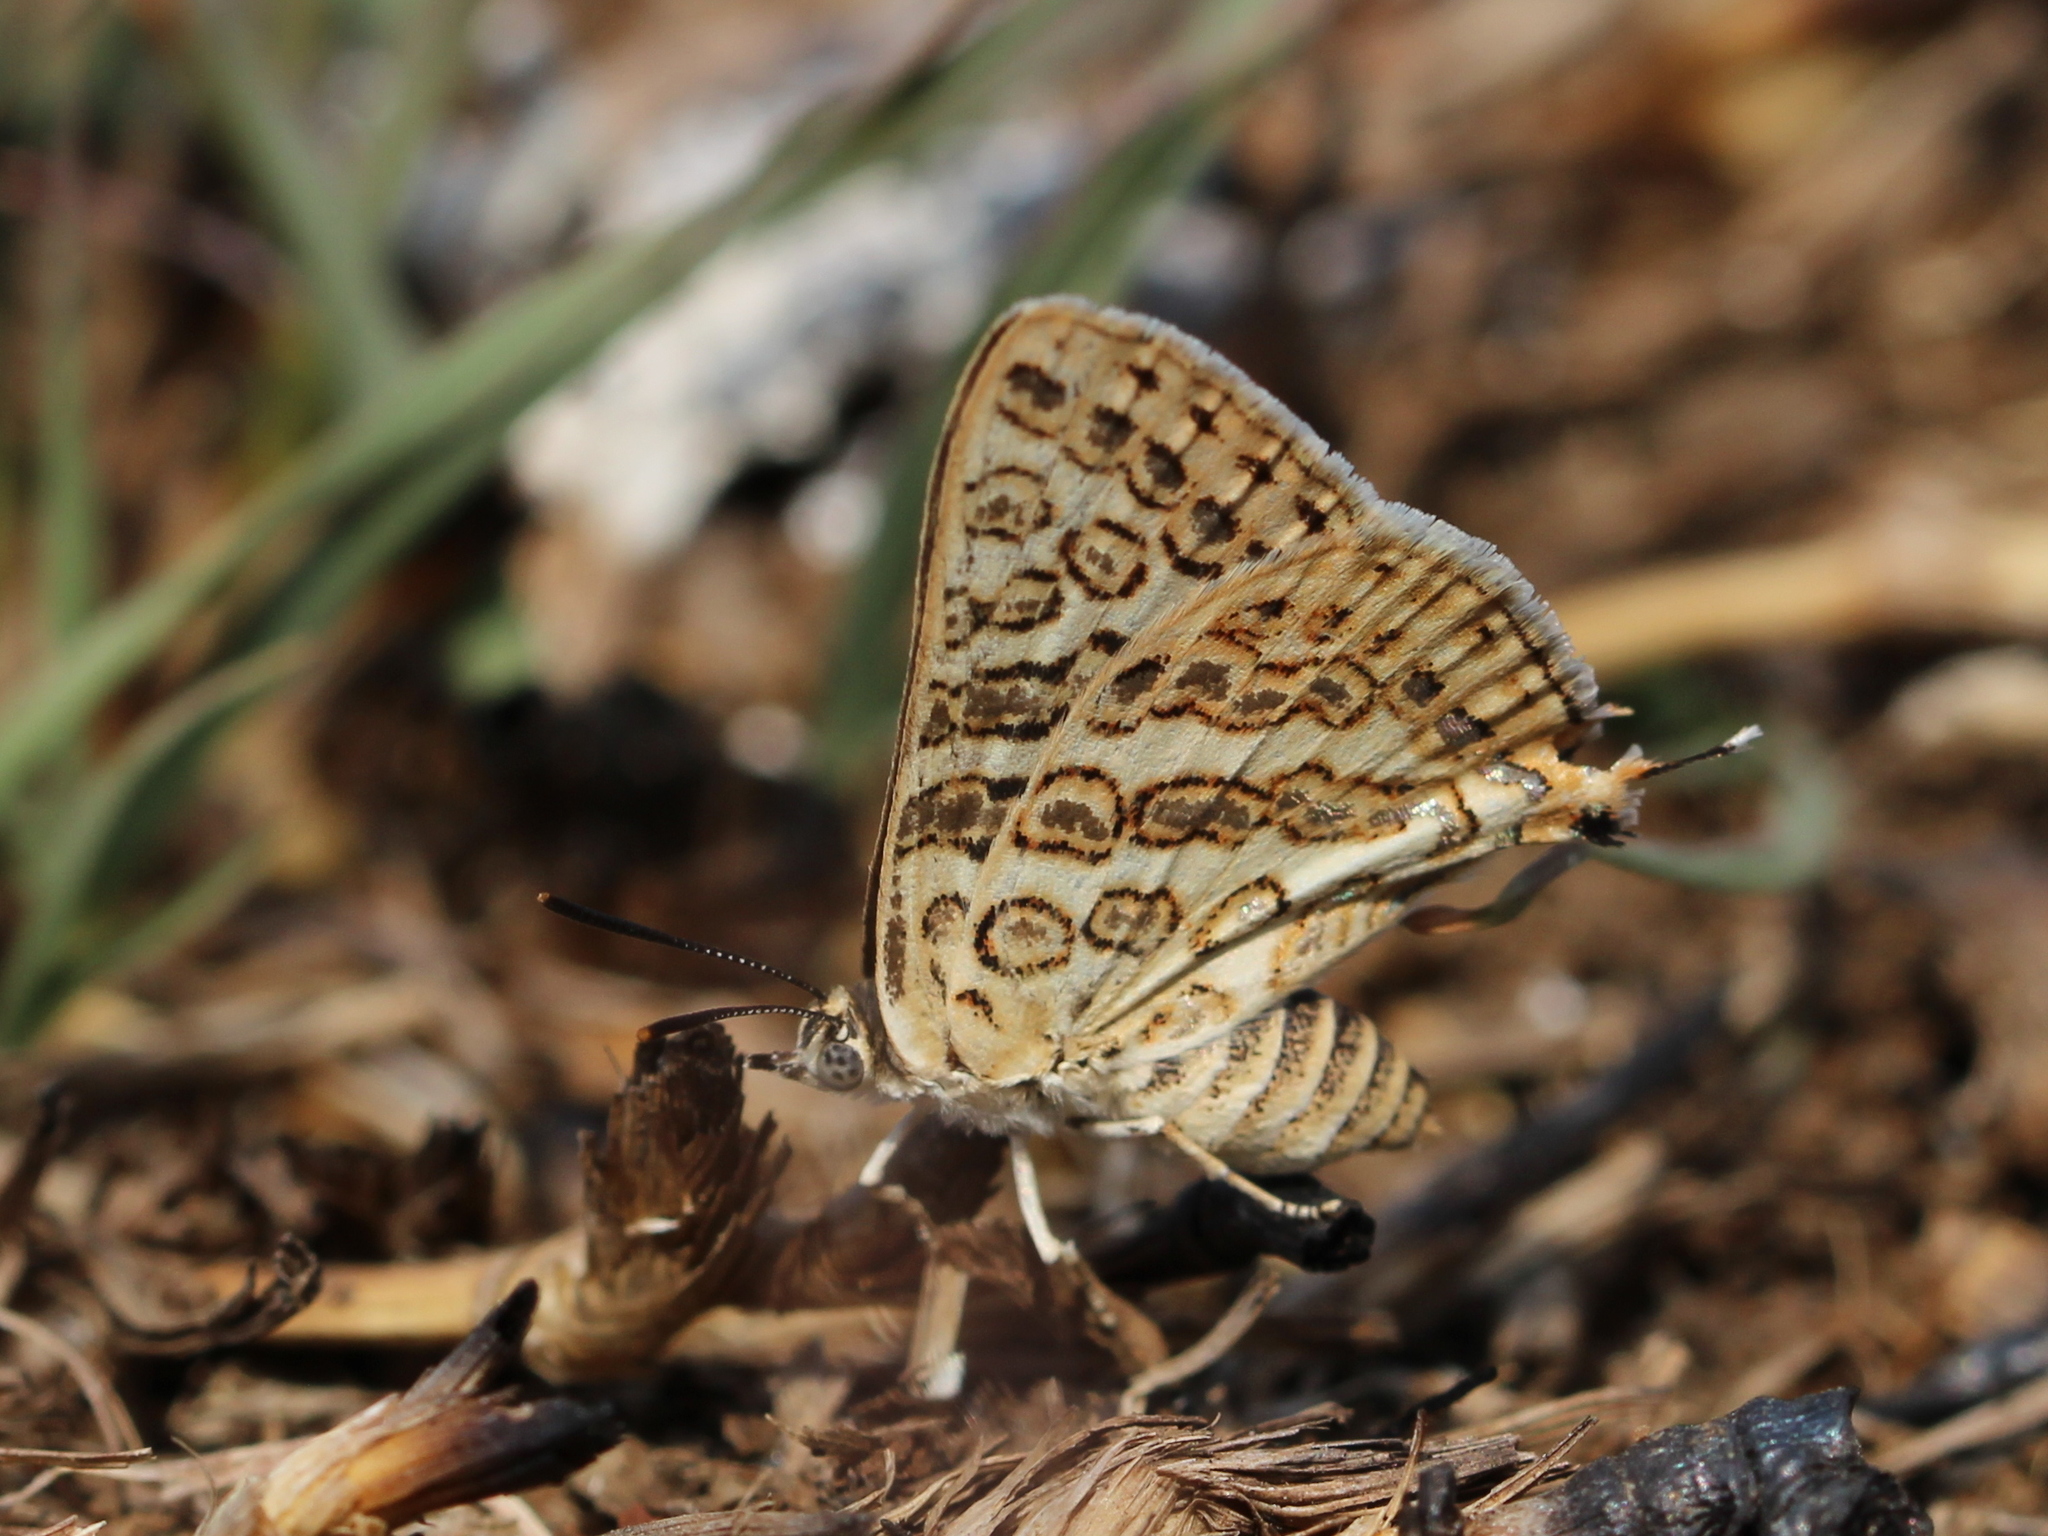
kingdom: Animalia
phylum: Arthropoda
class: Insecta
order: Lepidoptera
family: Lycaenidae
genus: Aphnaeus
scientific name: Aphnaeus lilacinus
